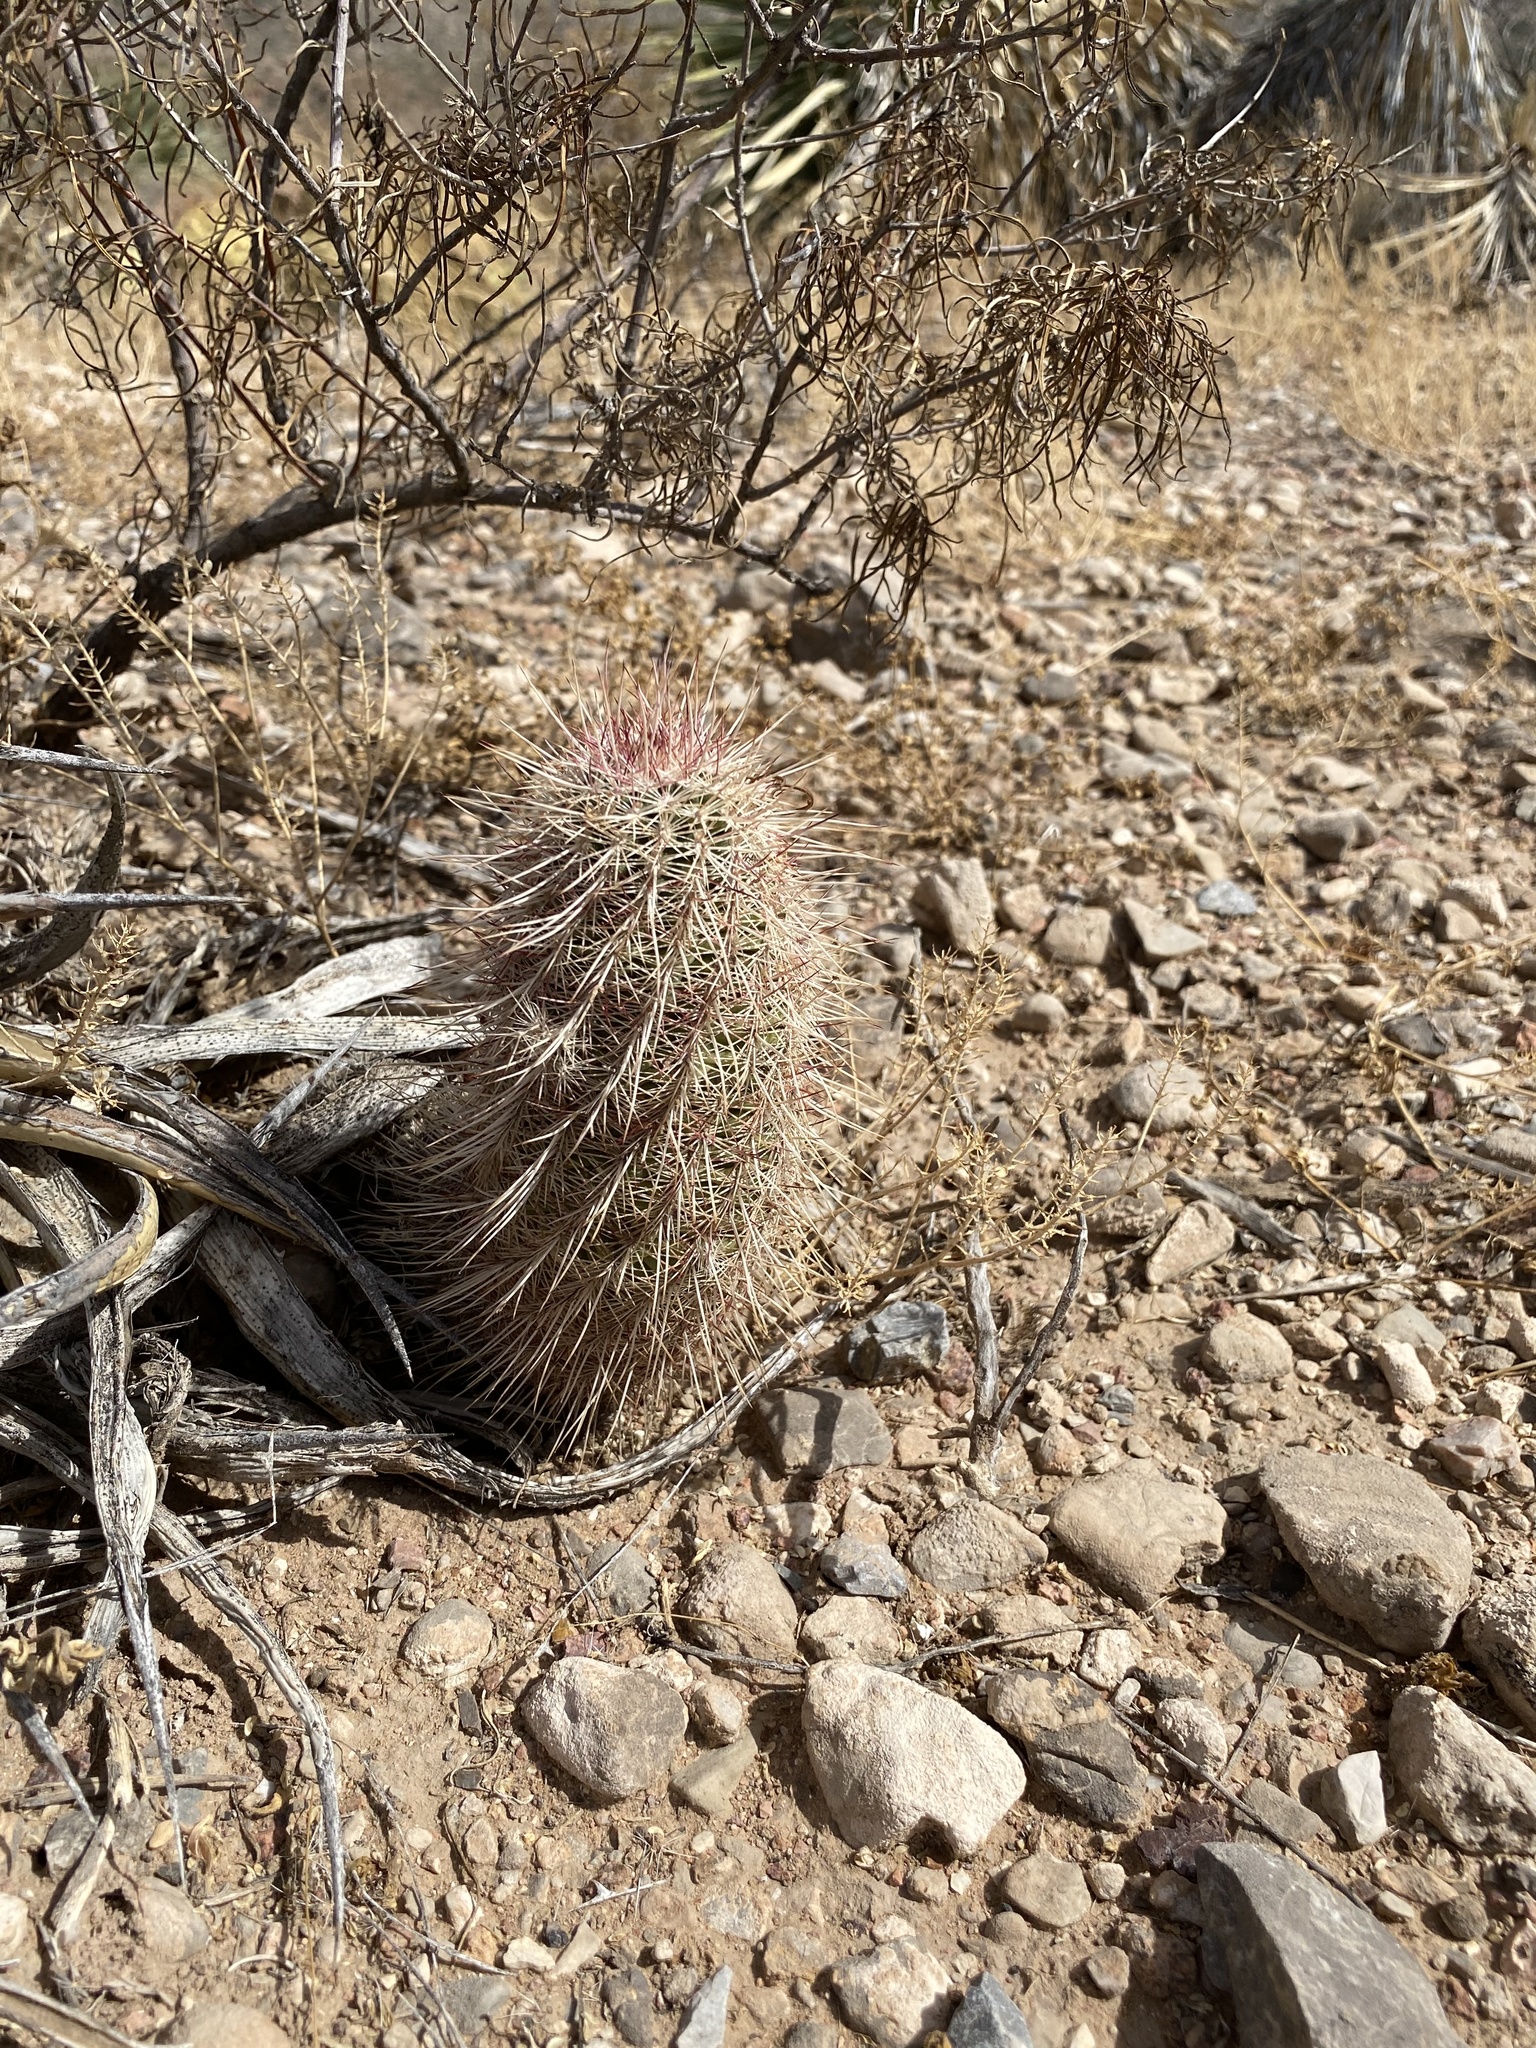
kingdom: Plantae
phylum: Tracheophyta
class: Magnoliopsida
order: Caryophyllales
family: Cactaceae
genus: Echinocereus
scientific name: Echinocereus viridiflorus
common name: Nylon hedgehog cactus
